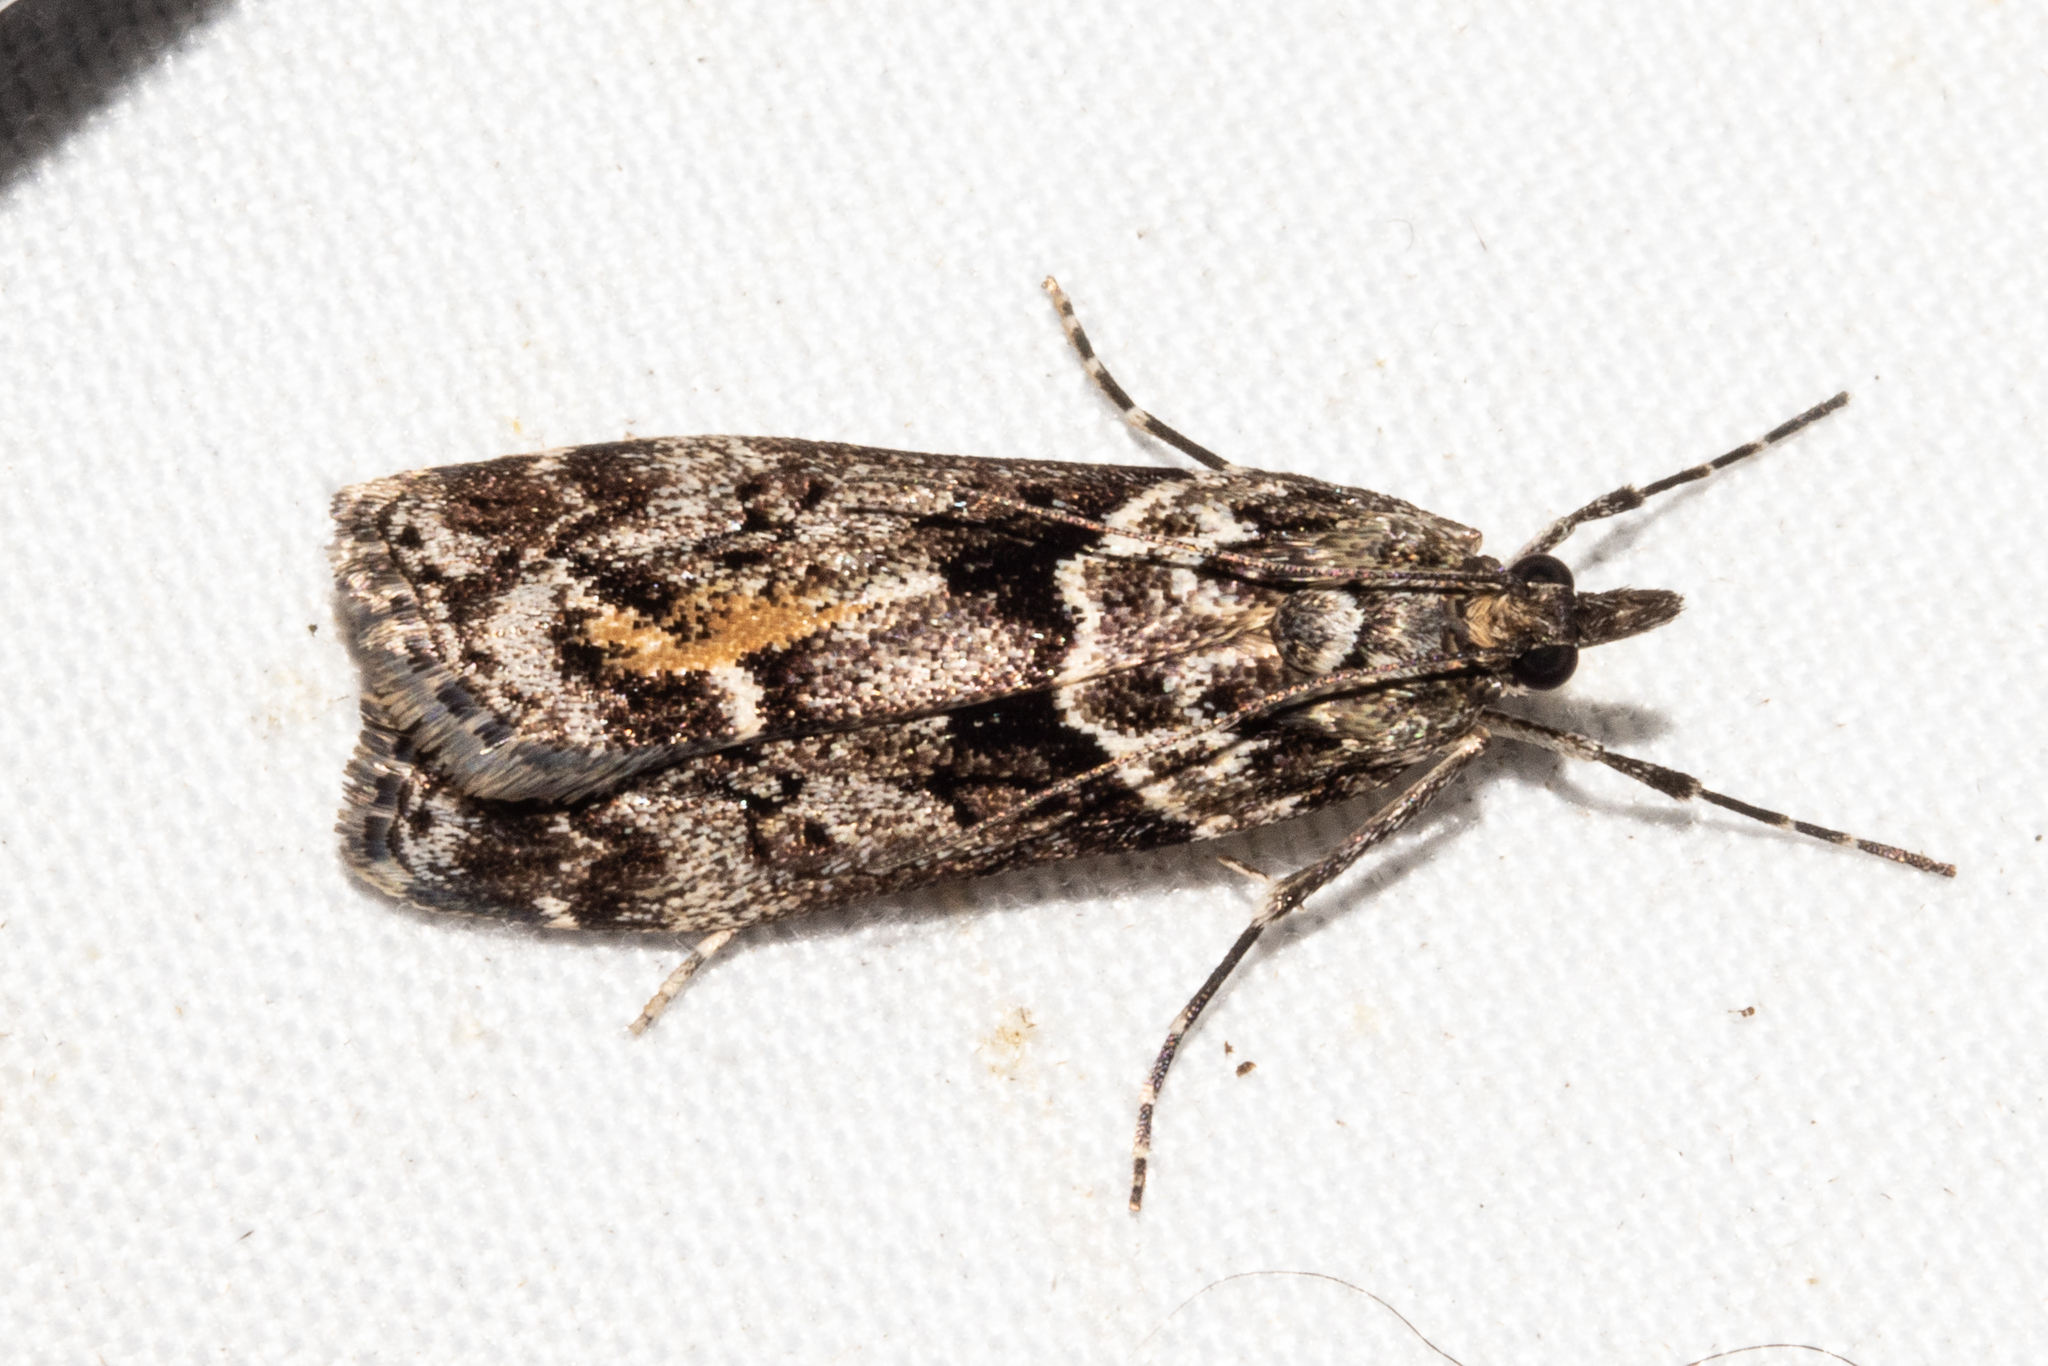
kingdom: Animalia
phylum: Arthropoda
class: Insecta
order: Lepidoptera
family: Crambidae
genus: Eudonia
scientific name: Eudonia submarginalis
